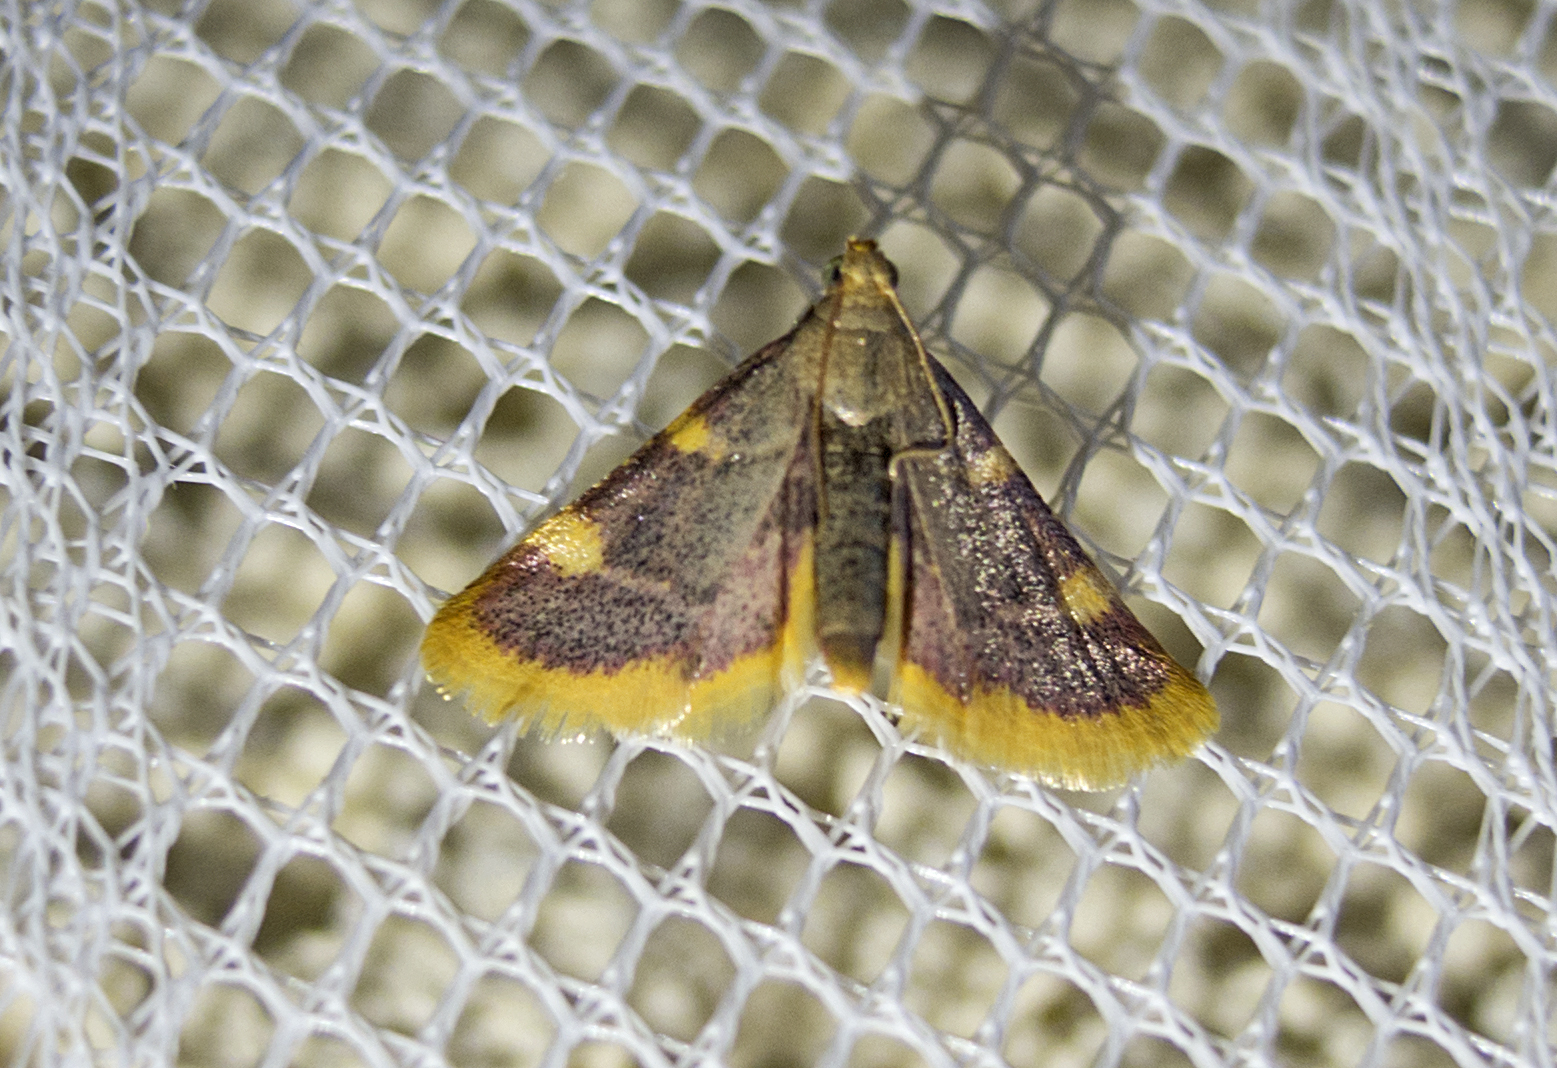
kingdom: Animalia
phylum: Arthropoda
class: Insecta
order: Lepidoptera
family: Pyralidae
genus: Hypsopygia
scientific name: Hypsopygia costalis
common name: Gold triangle
